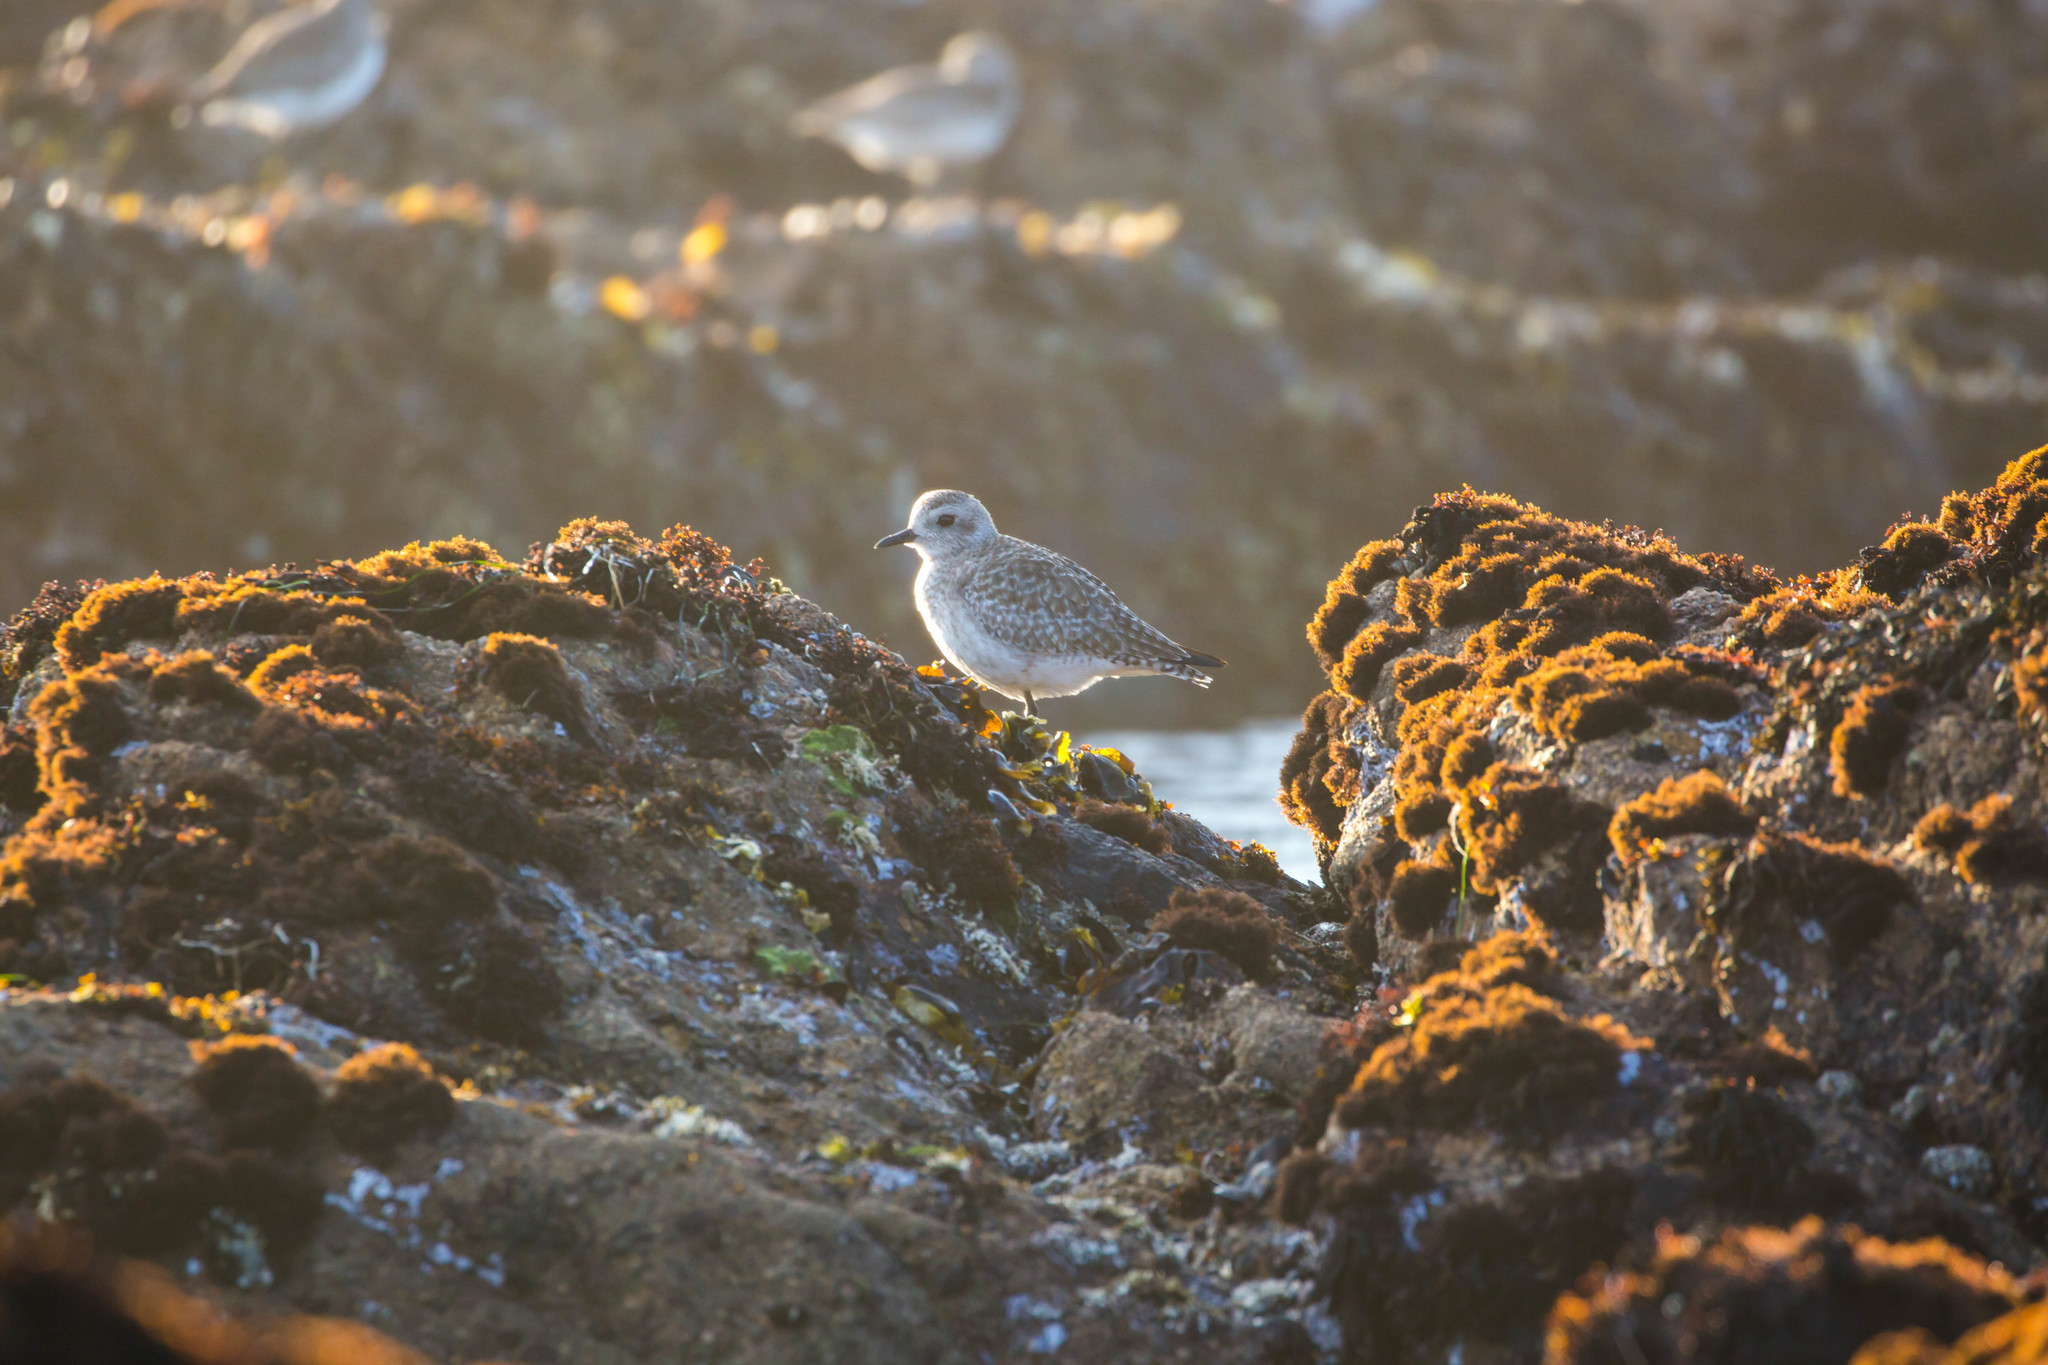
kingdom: Animalia
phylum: Chordata
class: Aves
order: Charadriiformes
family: Charadriidae
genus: Pluvialis
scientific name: Pluvialis squatarola
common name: Grey plover
